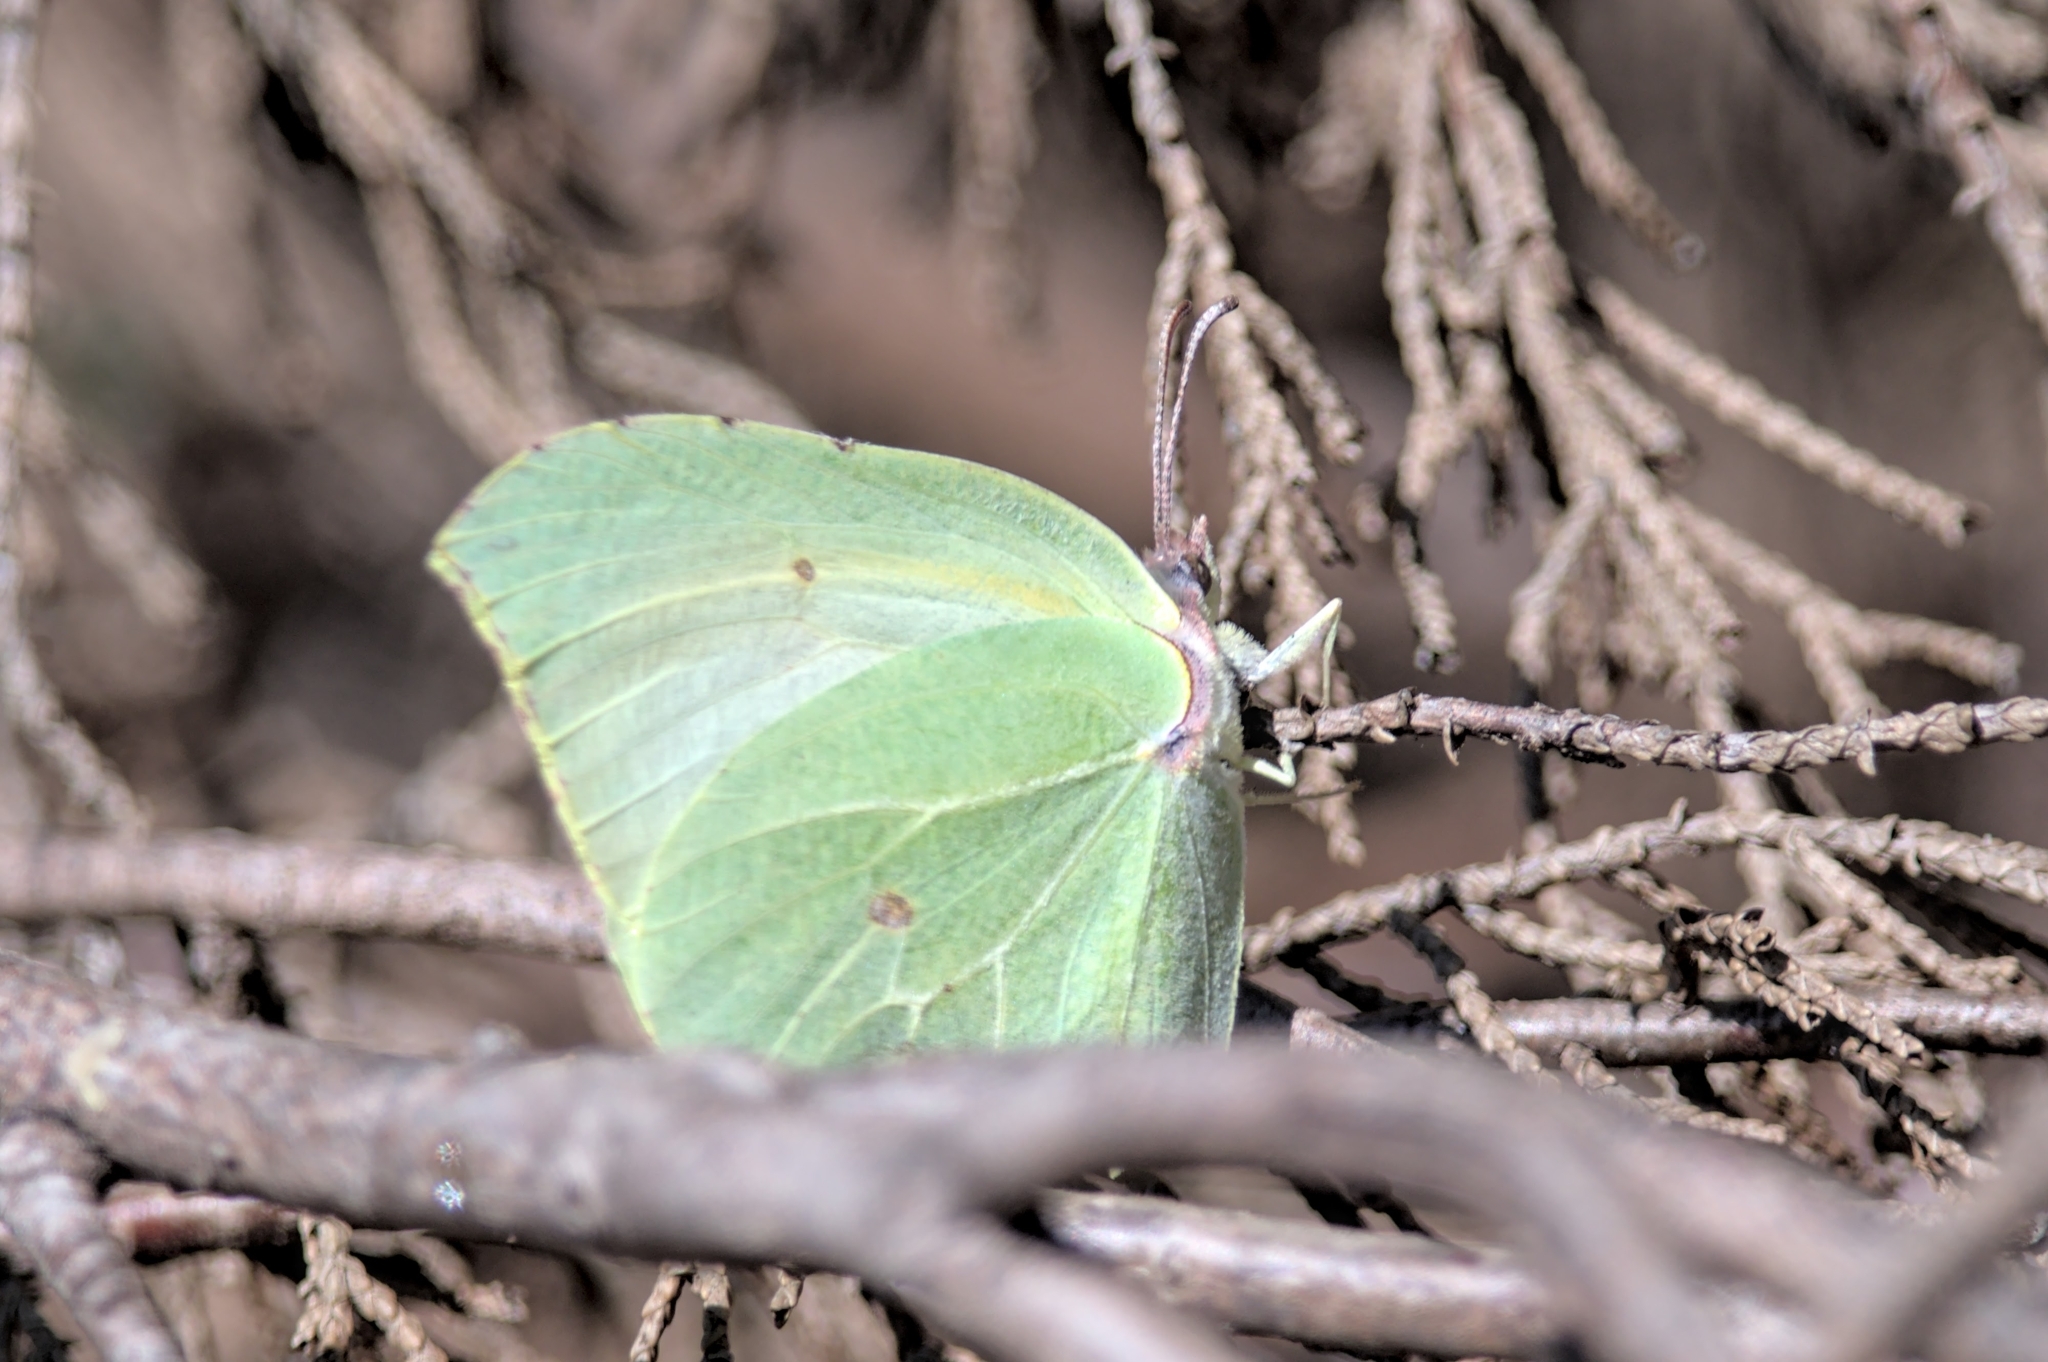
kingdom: Animalia
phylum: Arthropoda
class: Insecta
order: Lepidoptera
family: Pieridae
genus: Gonepteryx
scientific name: Gonepteryx cleopatra
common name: Cleopatra
